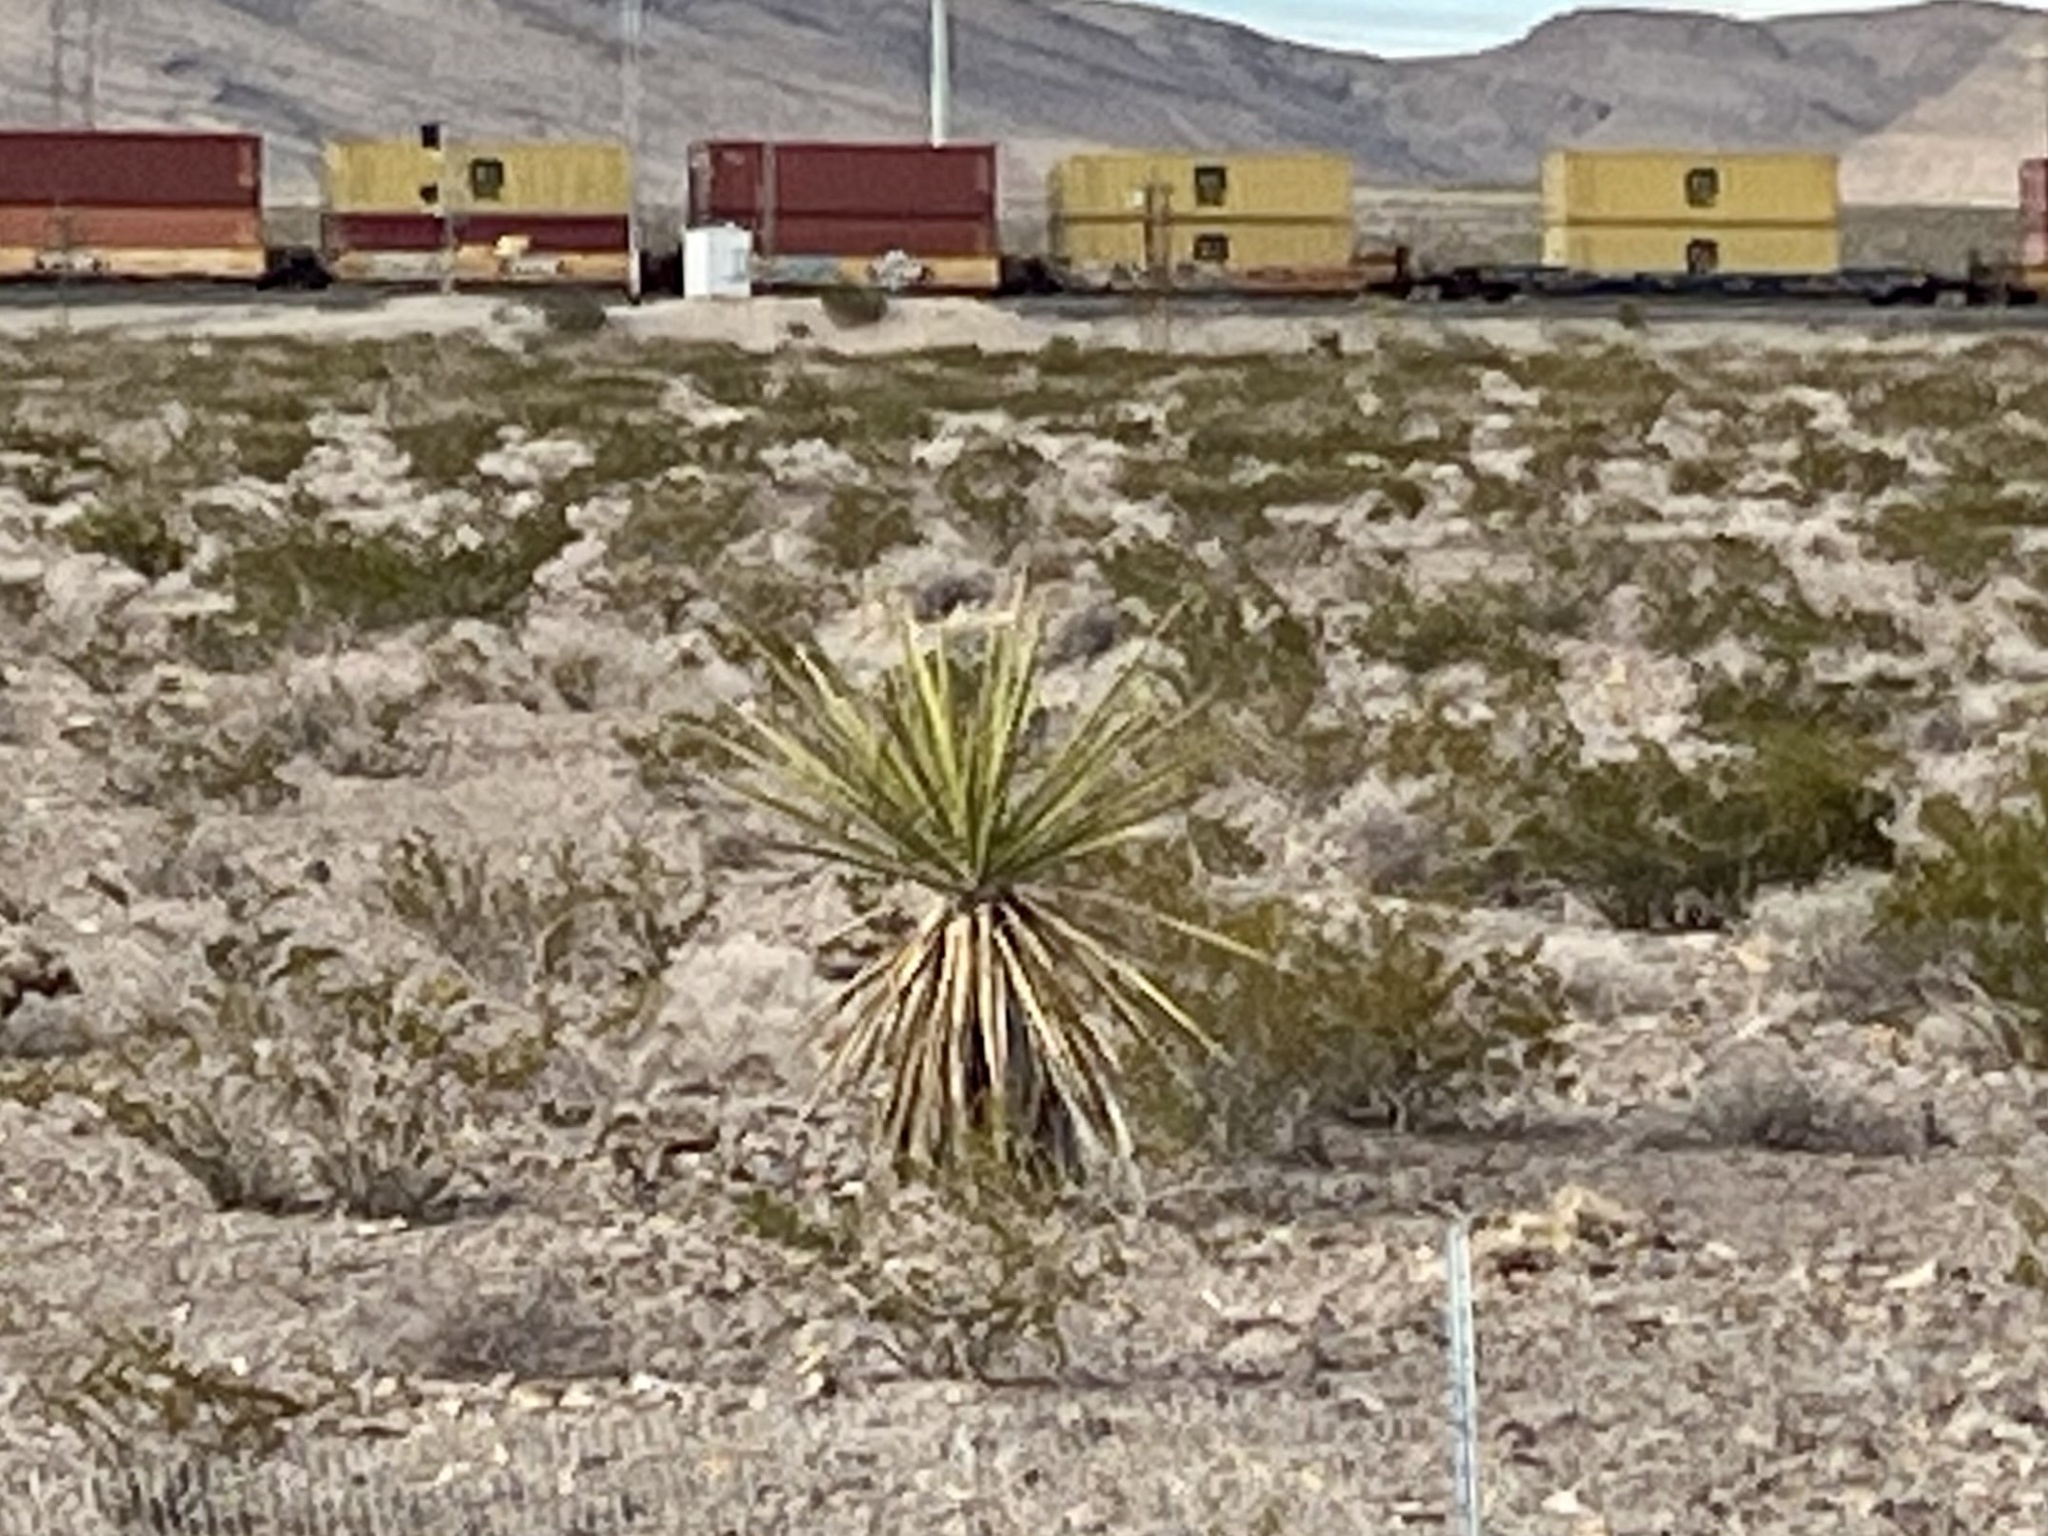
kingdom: Plantae
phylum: Tracheophyta
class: Liliopsida
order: Asparagales
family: Asparagaceae
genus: Yucca
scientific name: Yucca schidigera
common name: Mojave yucca
